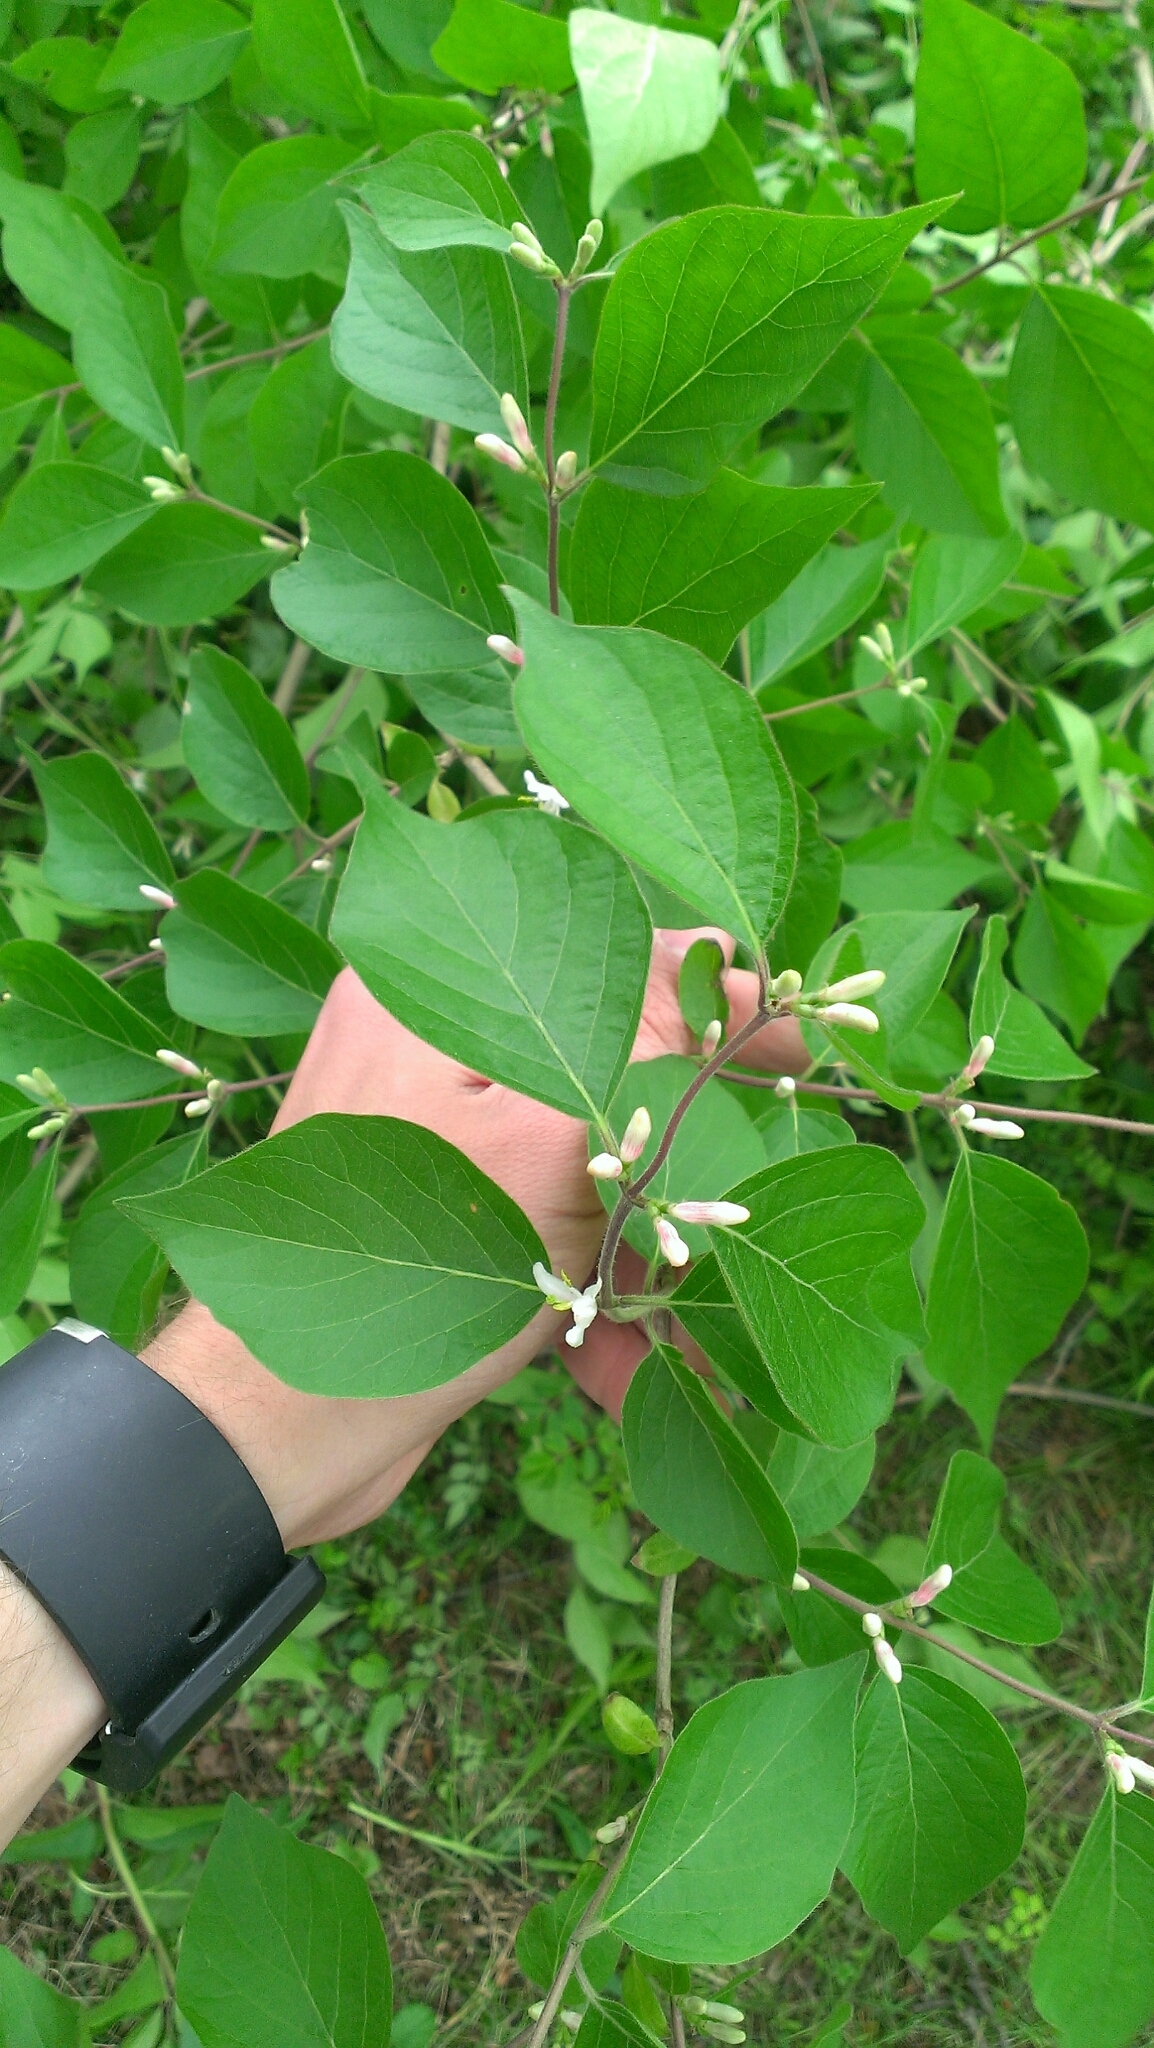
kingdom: Plantae
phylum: Tracheophyta
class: Magnoliopsida
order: Dipsacales
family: Caprifoliaceae
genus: Lonicera
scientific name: Lonicera maackii
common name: Amur honeysuckle
